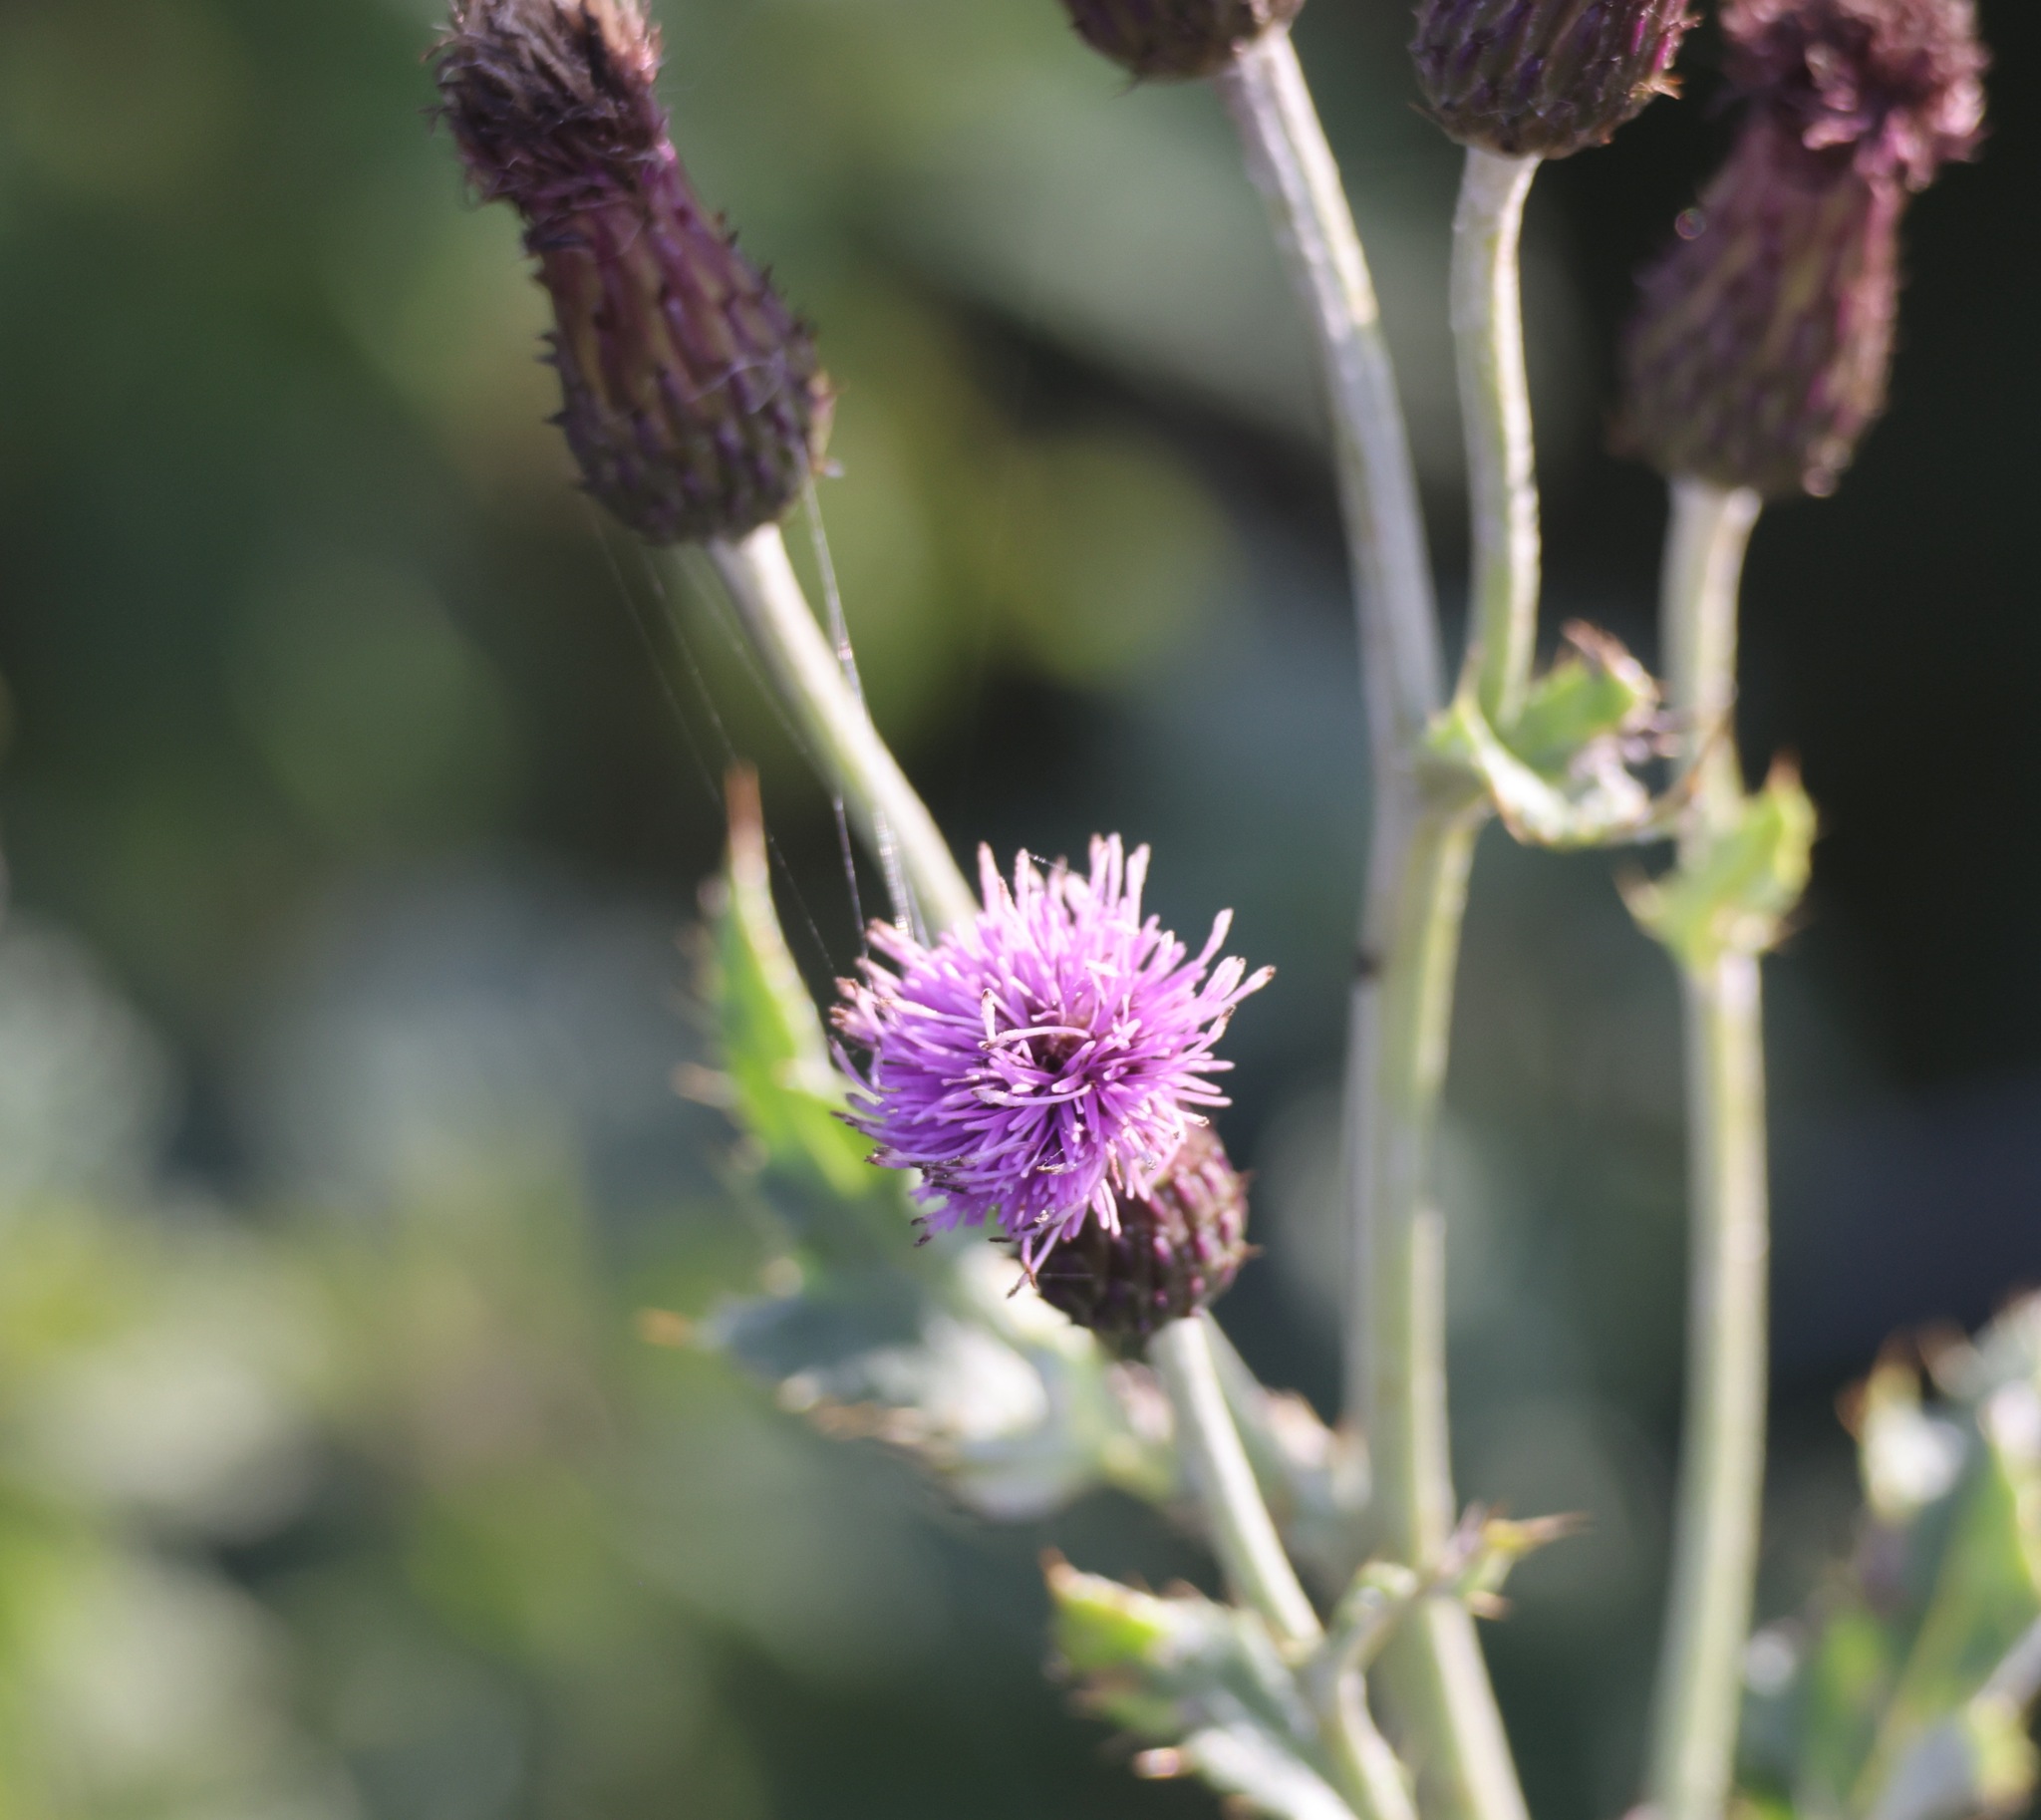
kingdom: Plantae
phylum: Tracheophyta
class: Magnoliopsida
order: Asterales
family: Asteraceae
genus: Cirsium
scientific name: Cirsium arvense
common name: Creeping thistle
